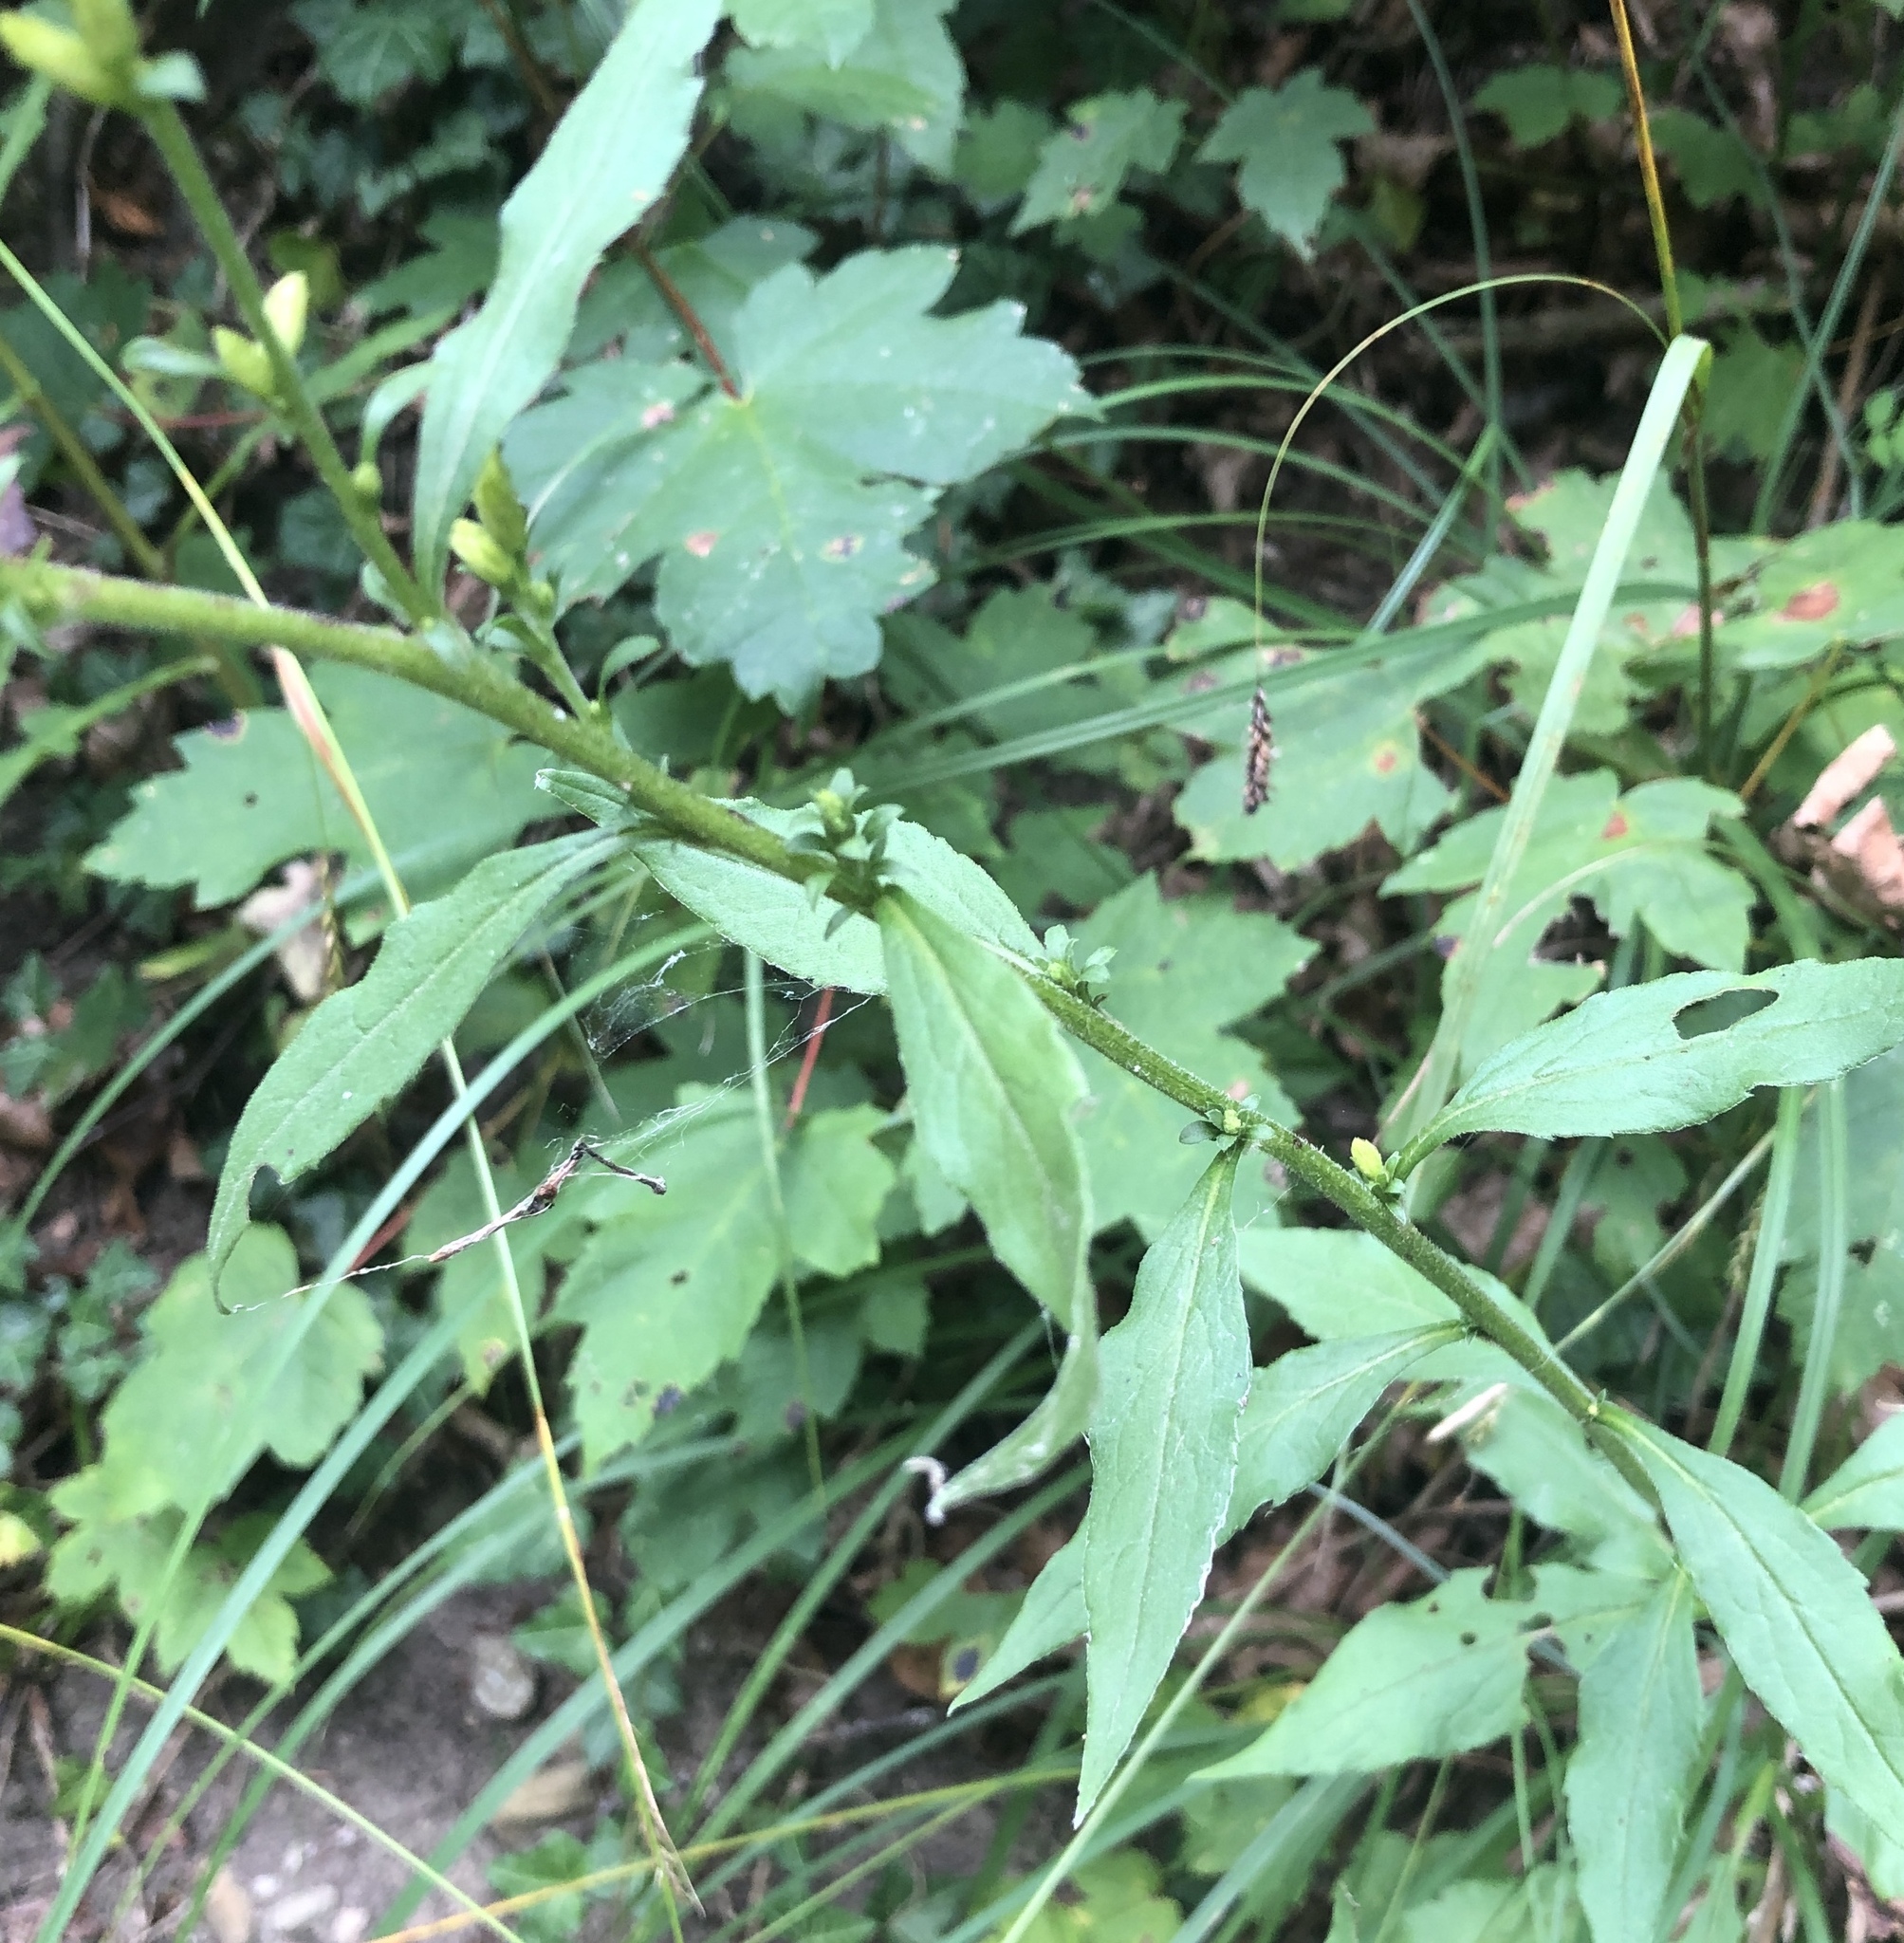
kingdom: Plantae
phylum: Tracheophyta
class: Magnoliopsida
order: Asterales
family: Asteraceae
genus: Solidago
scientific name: Solidago virgaurea
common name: Goldenrod
